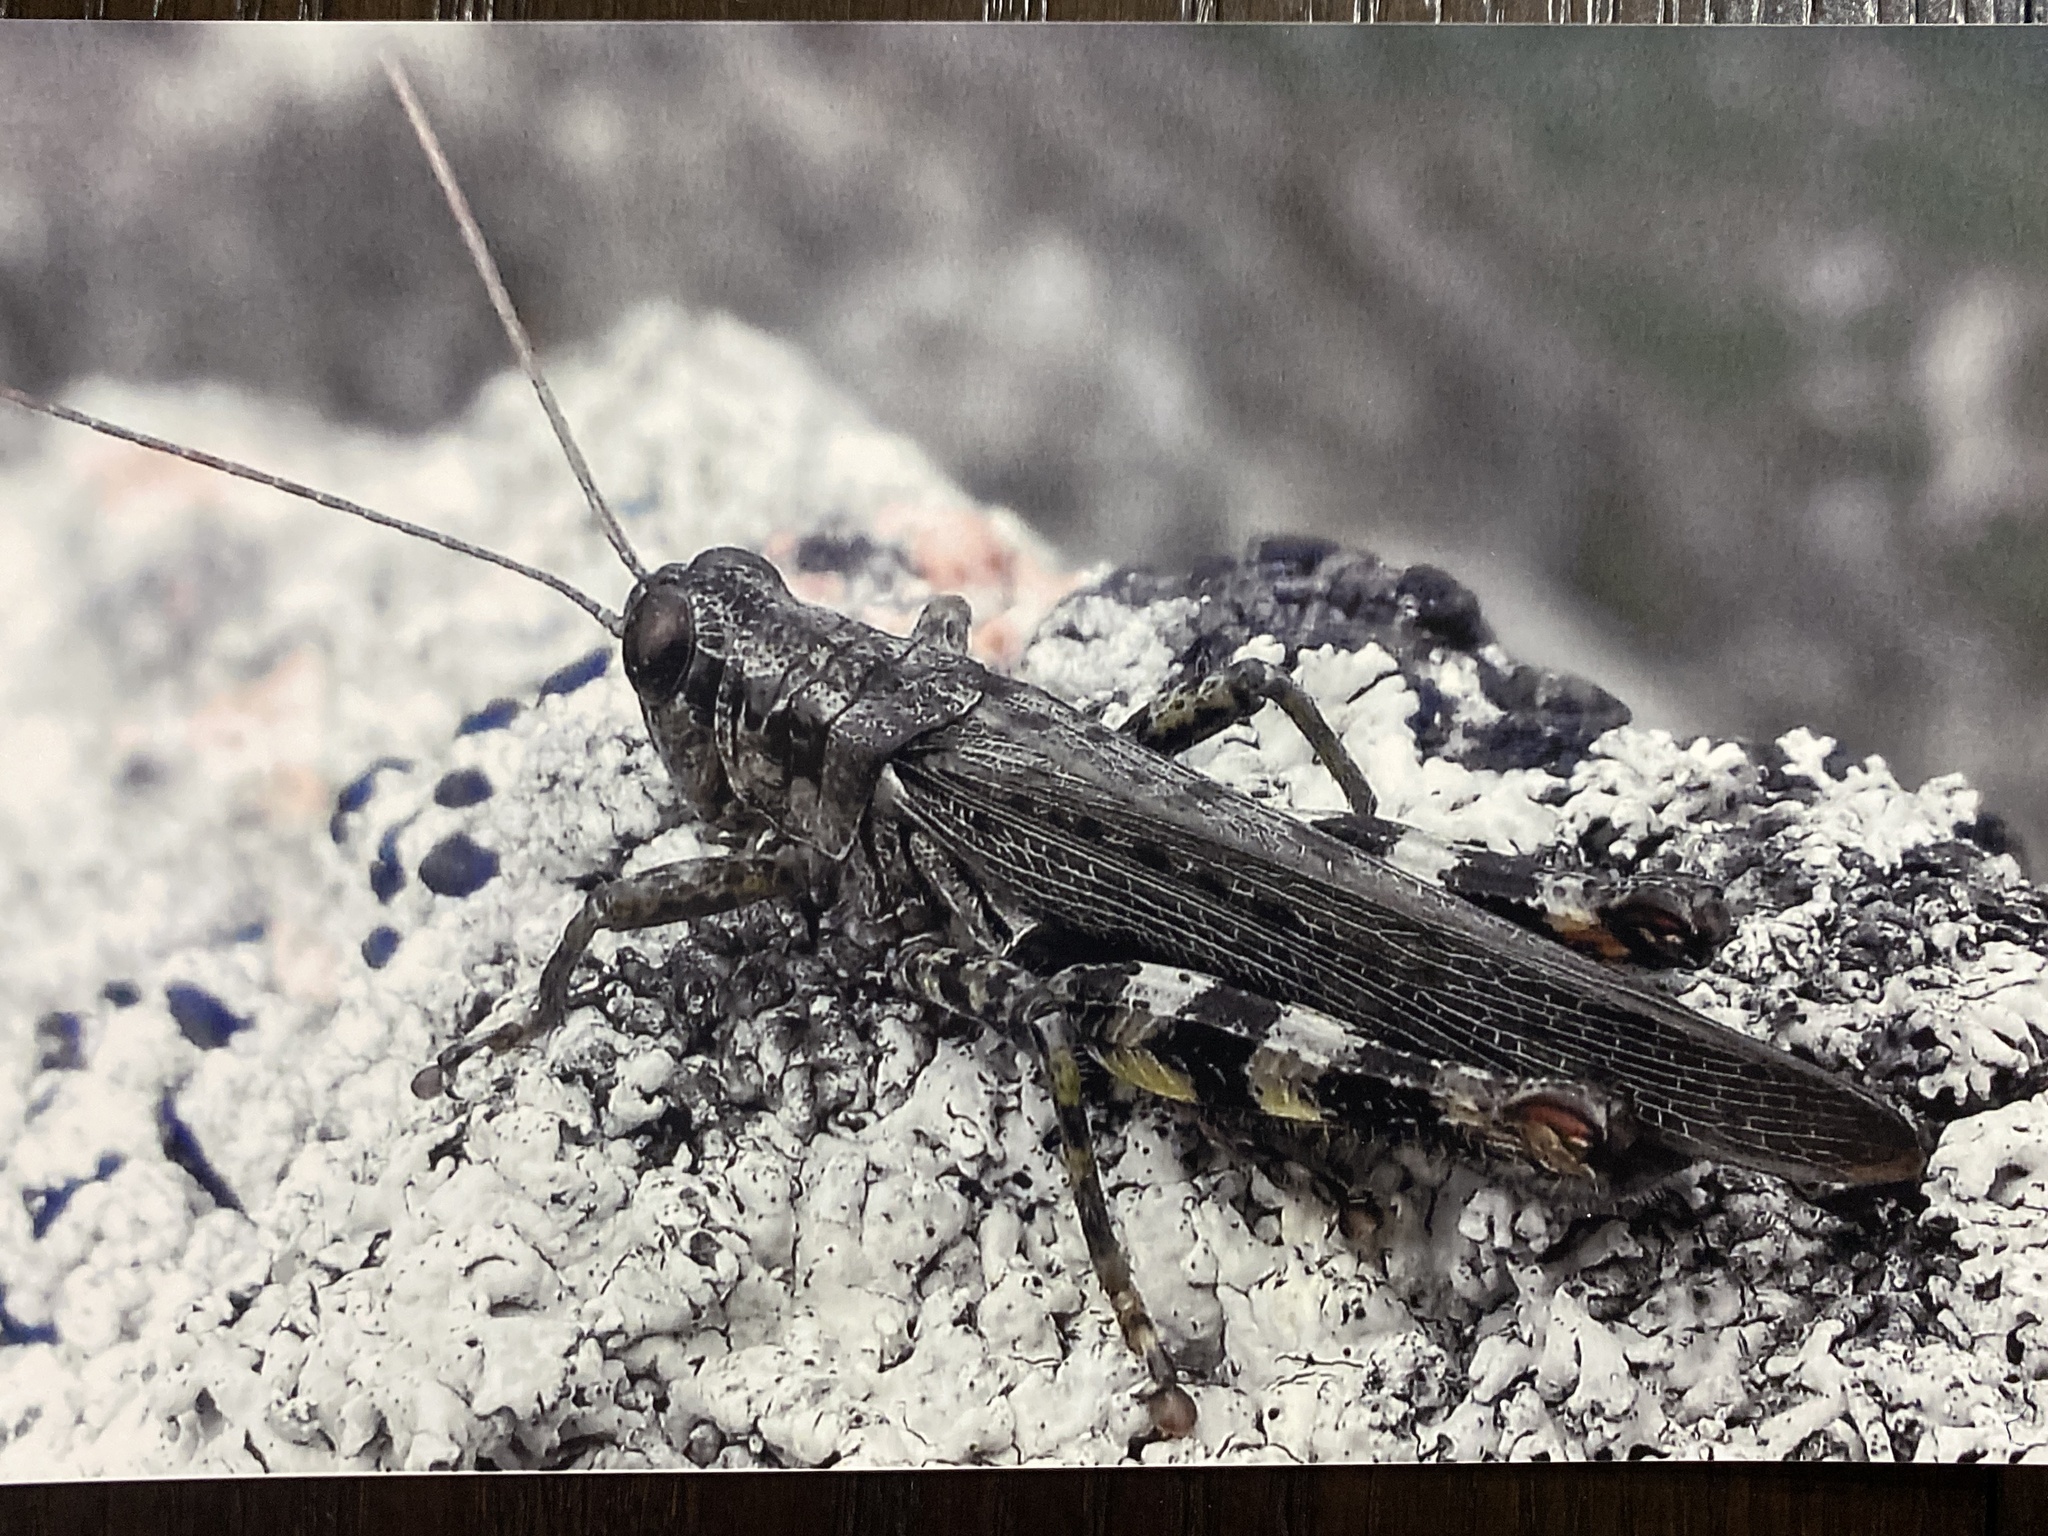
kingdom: Animalia
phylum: Arthropoda
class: Insecta
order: Orthoptera
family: Acrididae
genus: Melanoplus
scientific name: Melanoplus punctulatus
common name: Pine-tree spur-throat grasshopper
